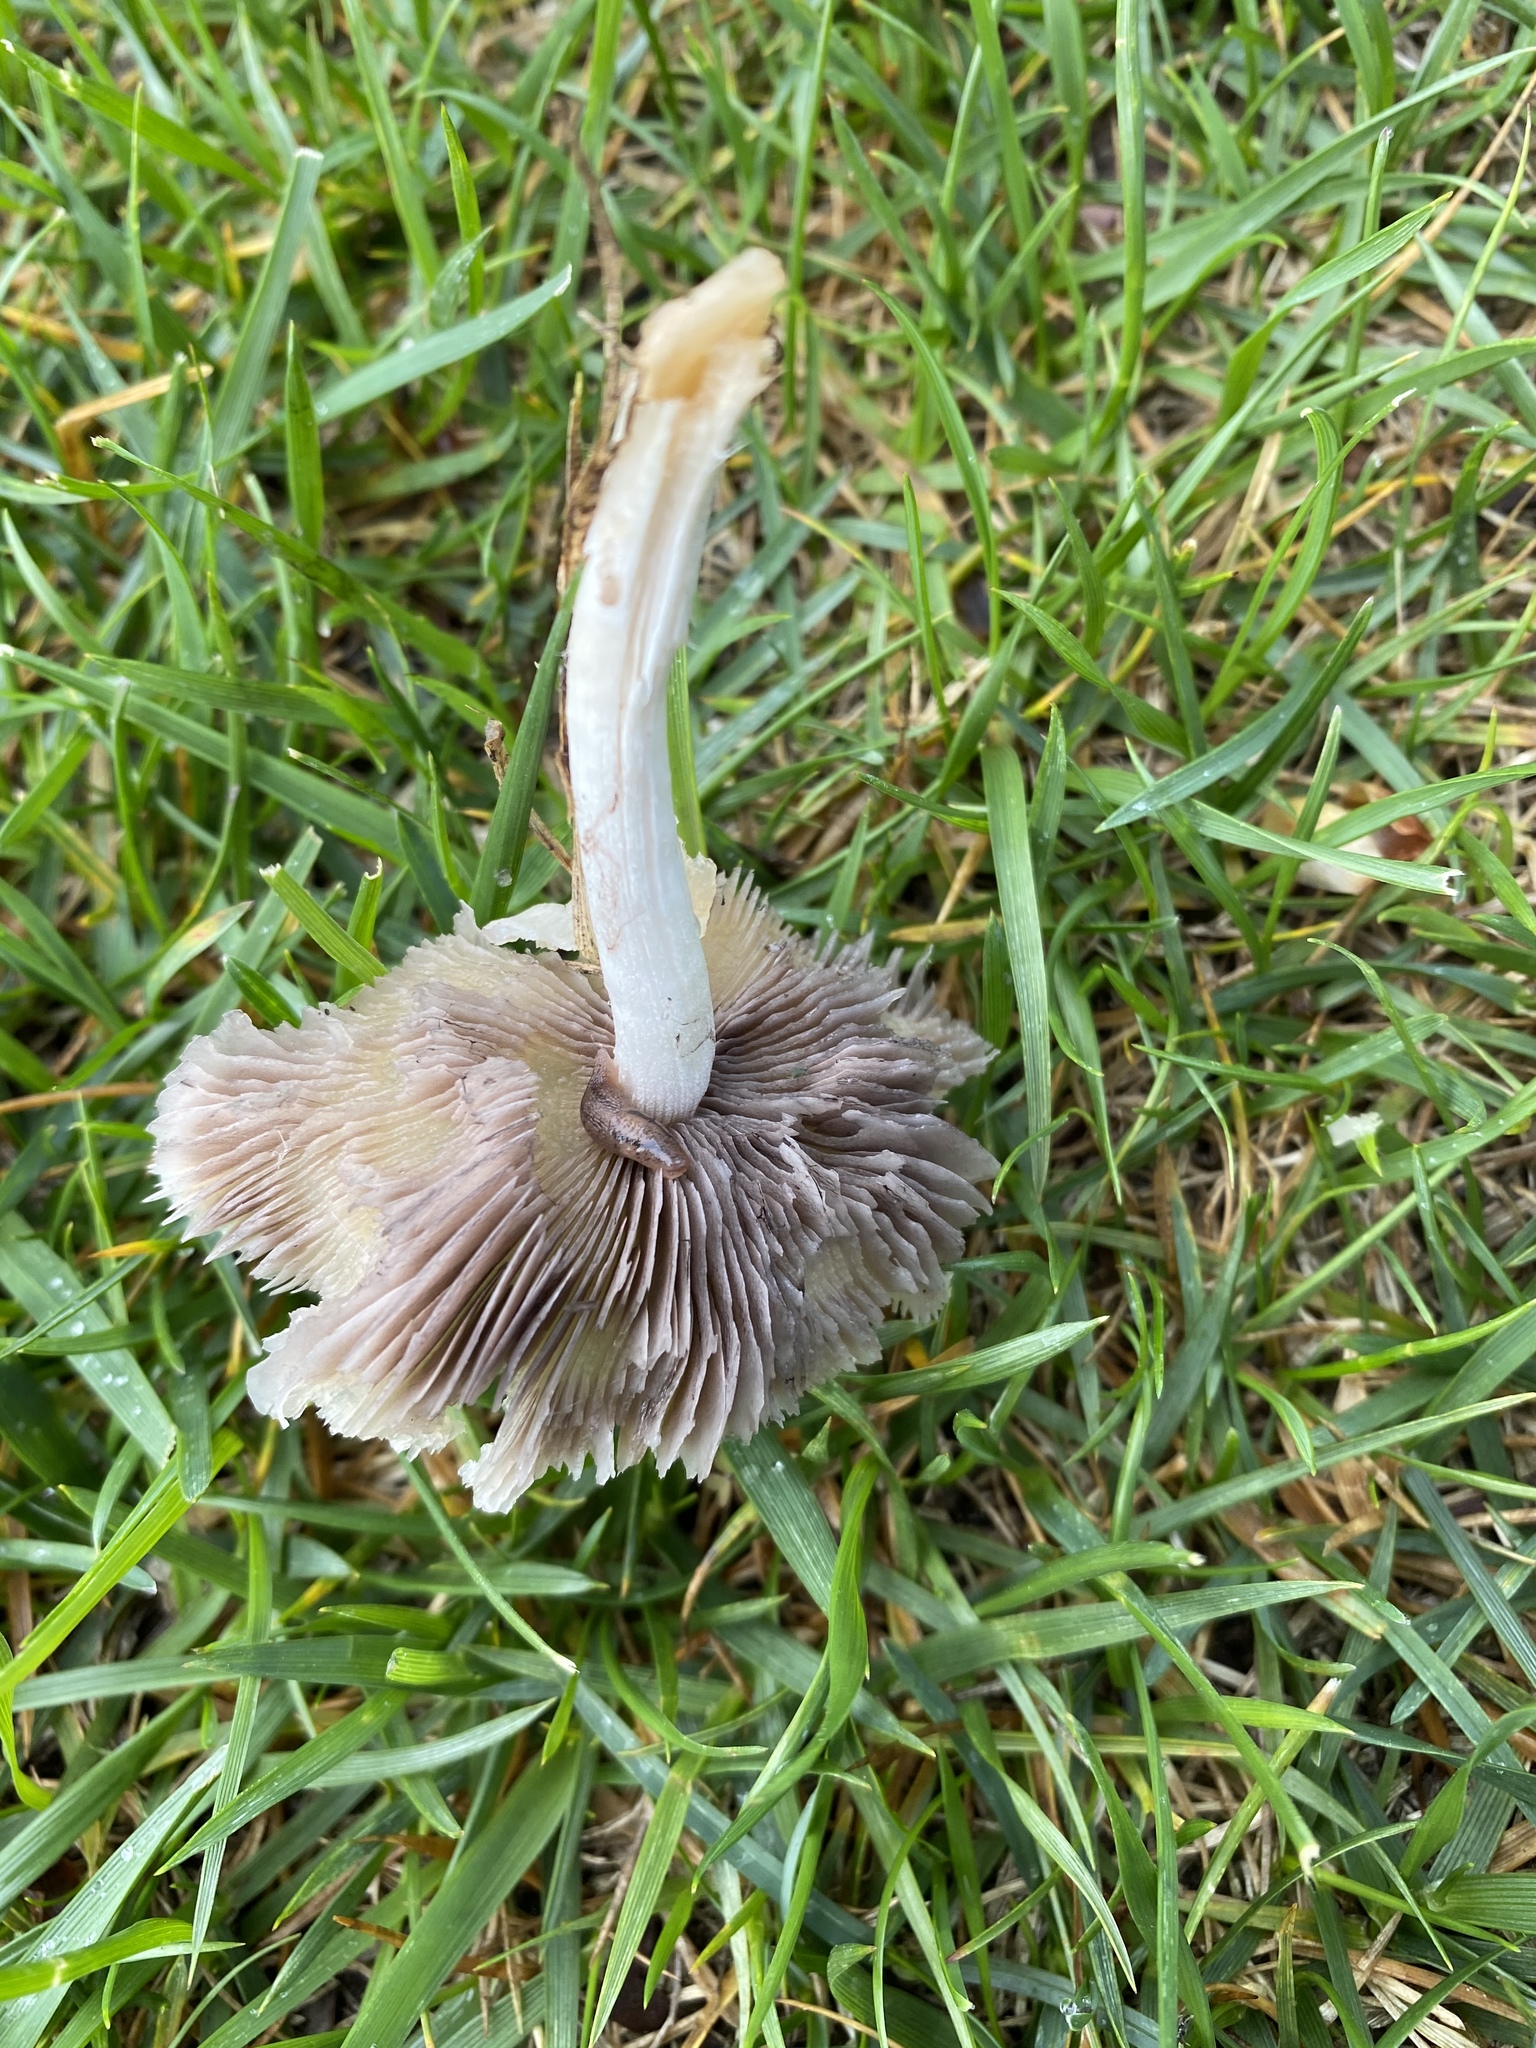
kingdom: Fungi
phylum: Basidiomycota
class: Agaricomycetes
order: Agaricales
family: Psathyrellaceae
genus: Candolleomyces
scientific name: Candolleomyces candolleanus
